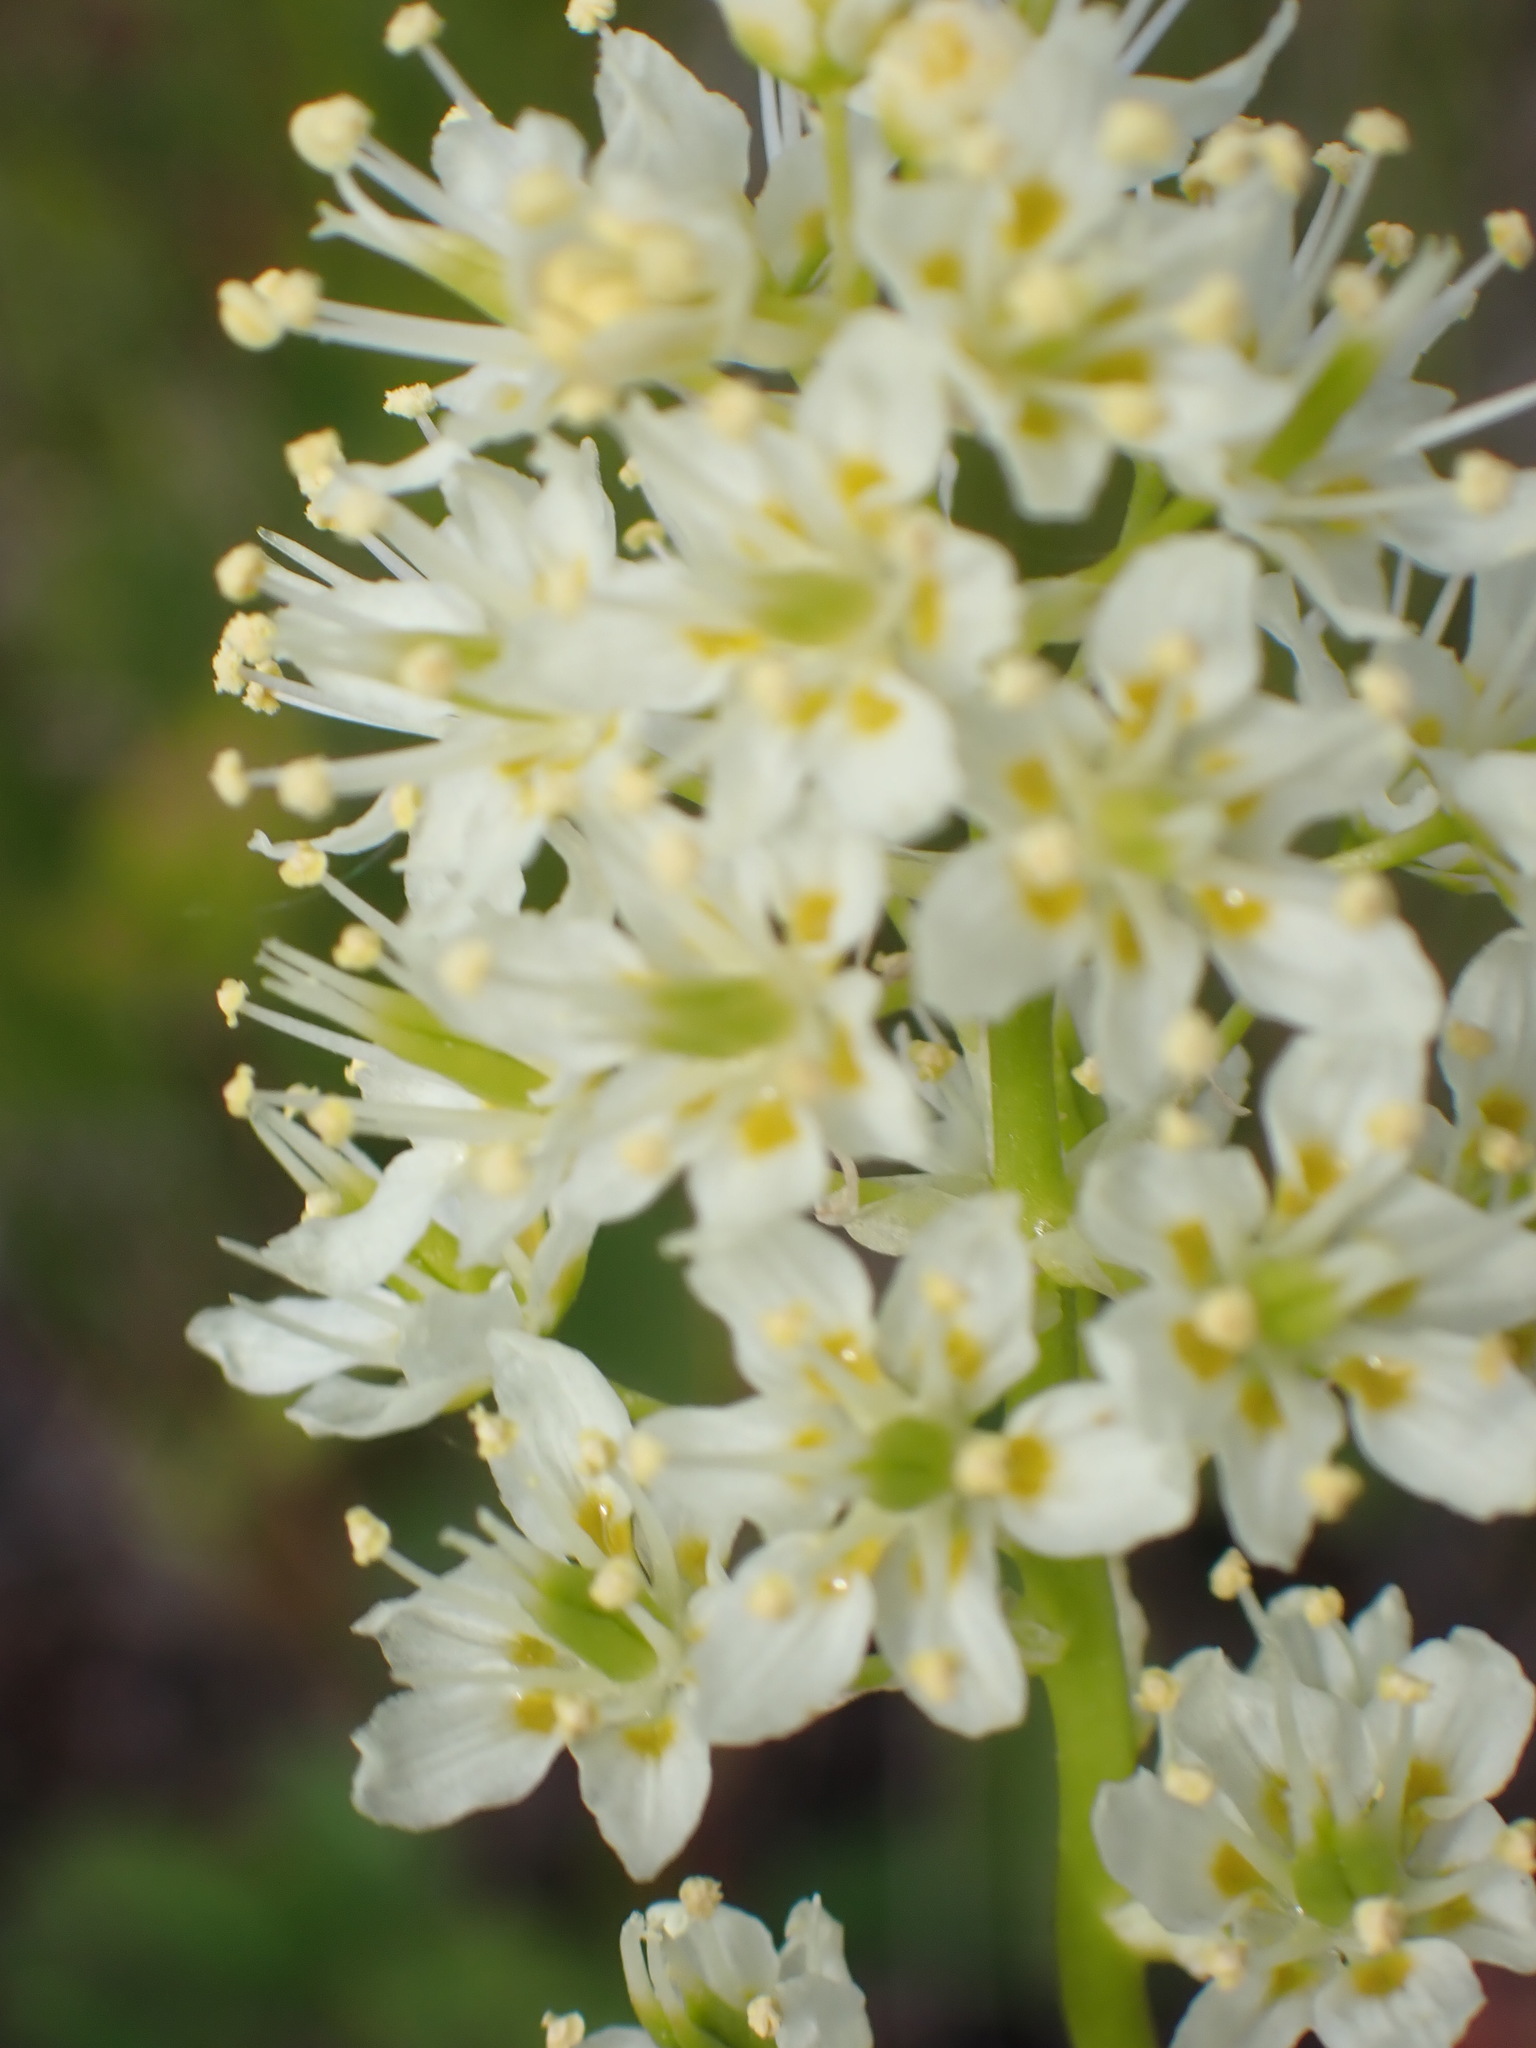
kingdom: Plantae
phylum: Tracheophyta
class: Liliopsida
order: Liliales
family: Melanthiaceae
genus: Toxicoscordion
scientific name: Toxicoscordion venenosum
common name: Meadow death camas
